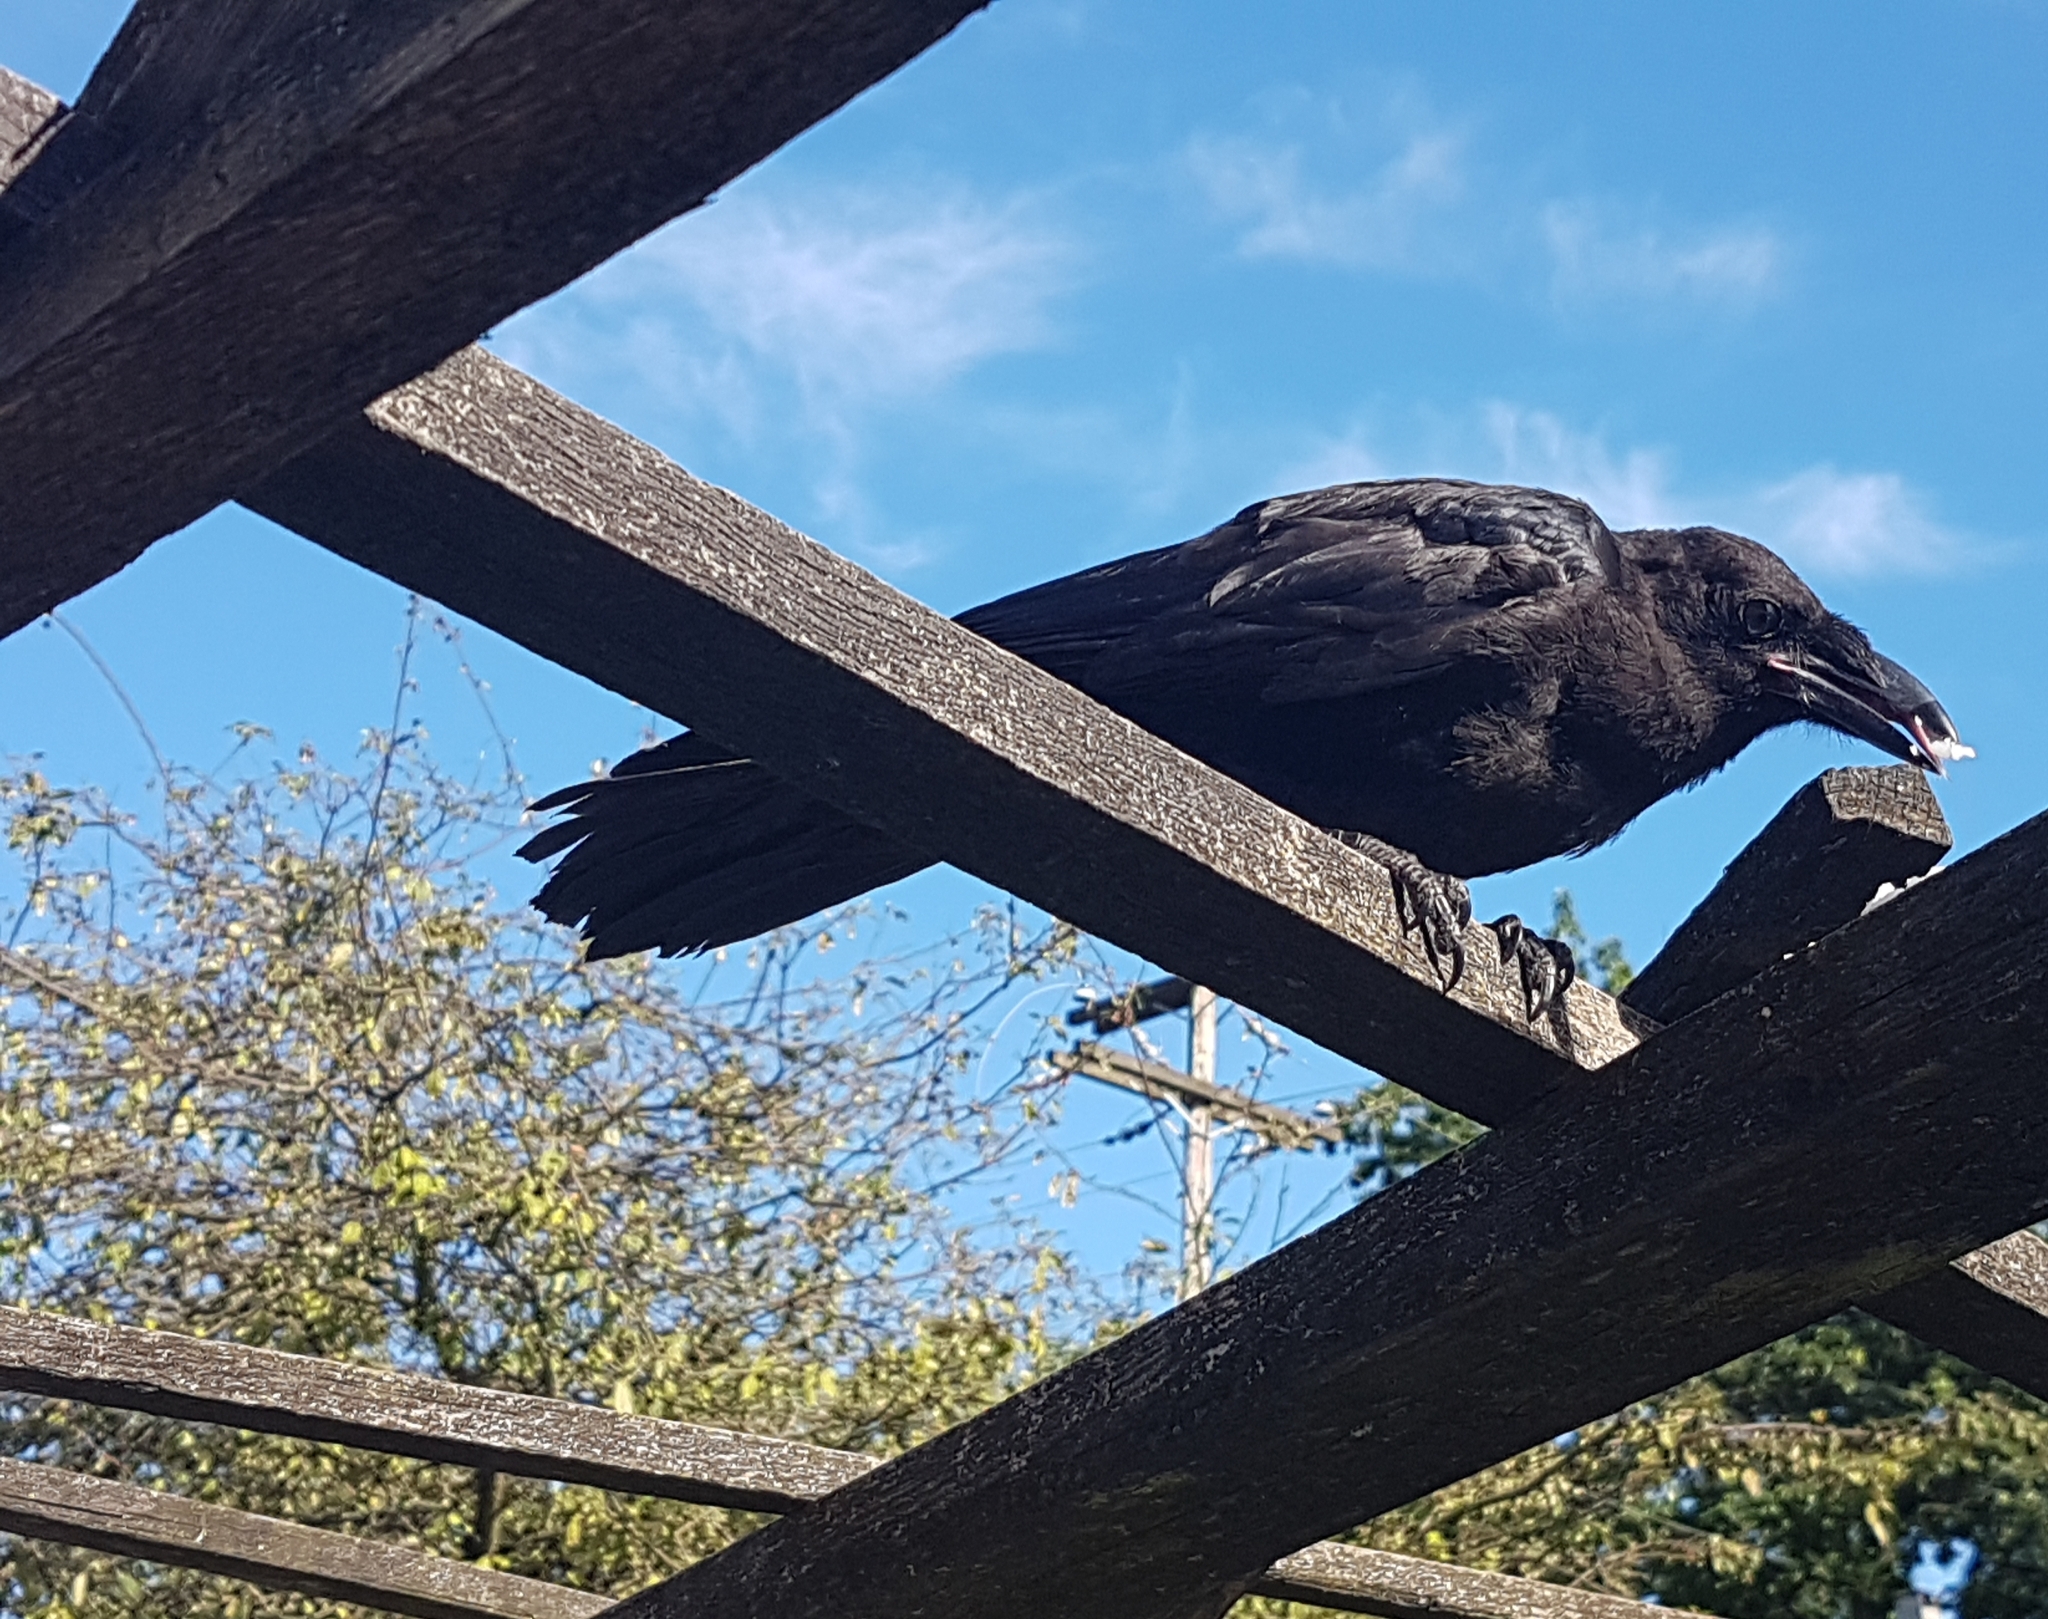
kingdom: Animalia
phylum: Chordata
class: Aves
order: Passeriformes
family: Corvidae
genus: Corvus
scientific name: Corvus brachyrhynchos
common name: American crow
